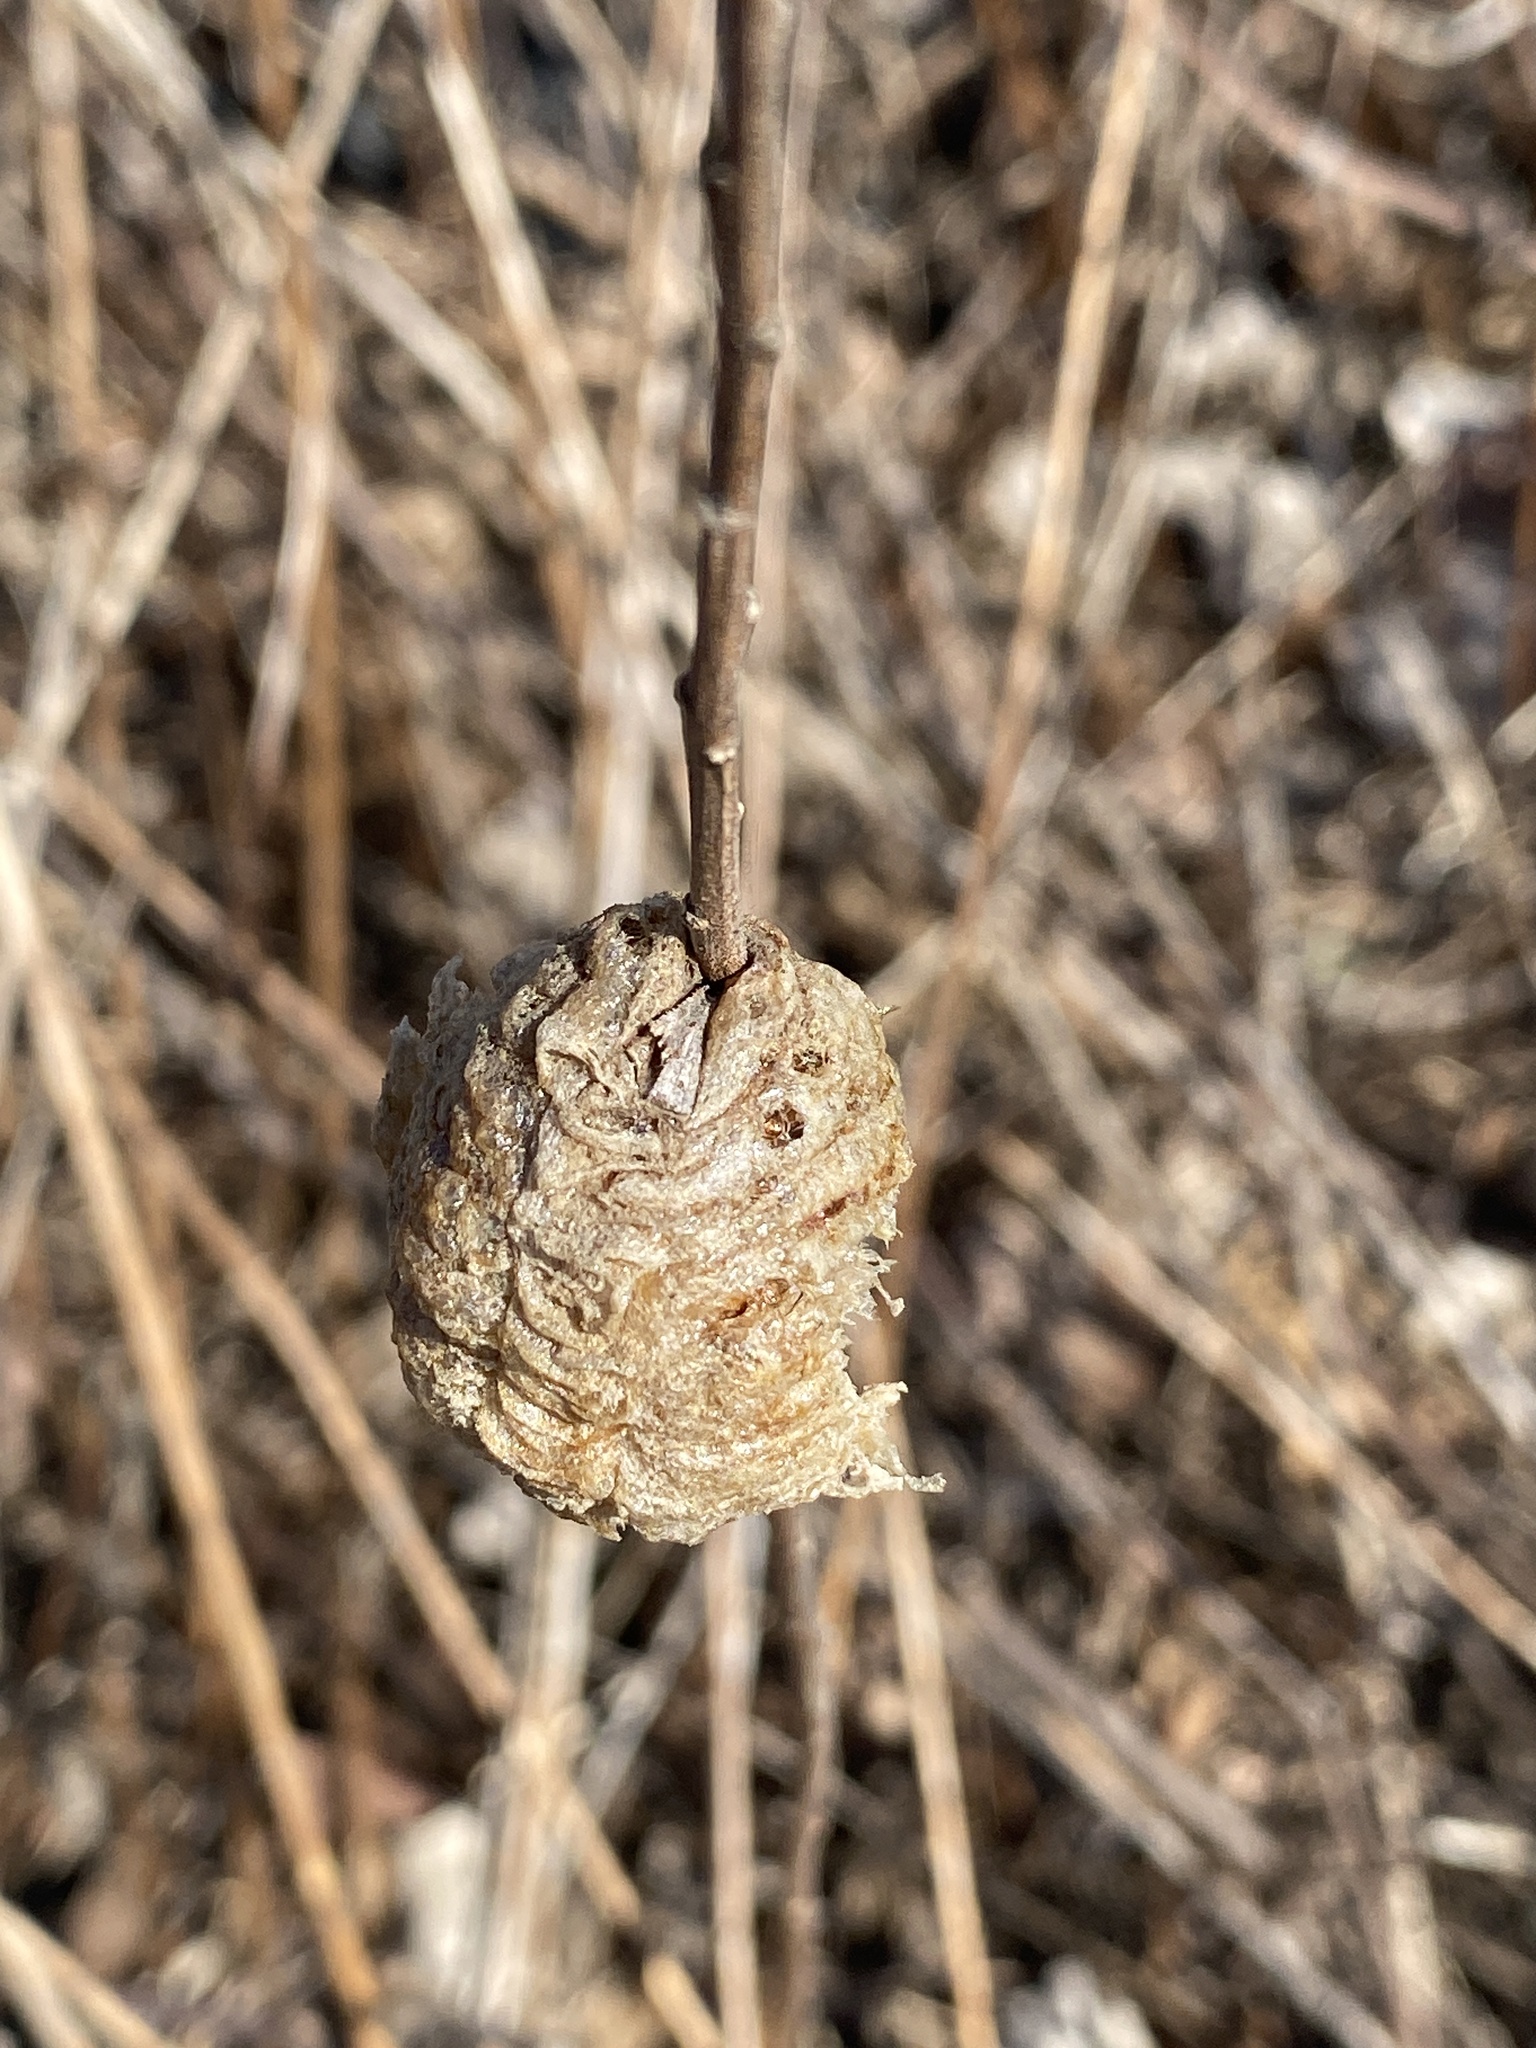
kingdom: Animalia
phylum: Arthropoda
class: Insecta
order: Mantodea
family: Mantidae
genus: Tenodera
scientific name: Tenodera sinensis
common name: Chinese mantis
